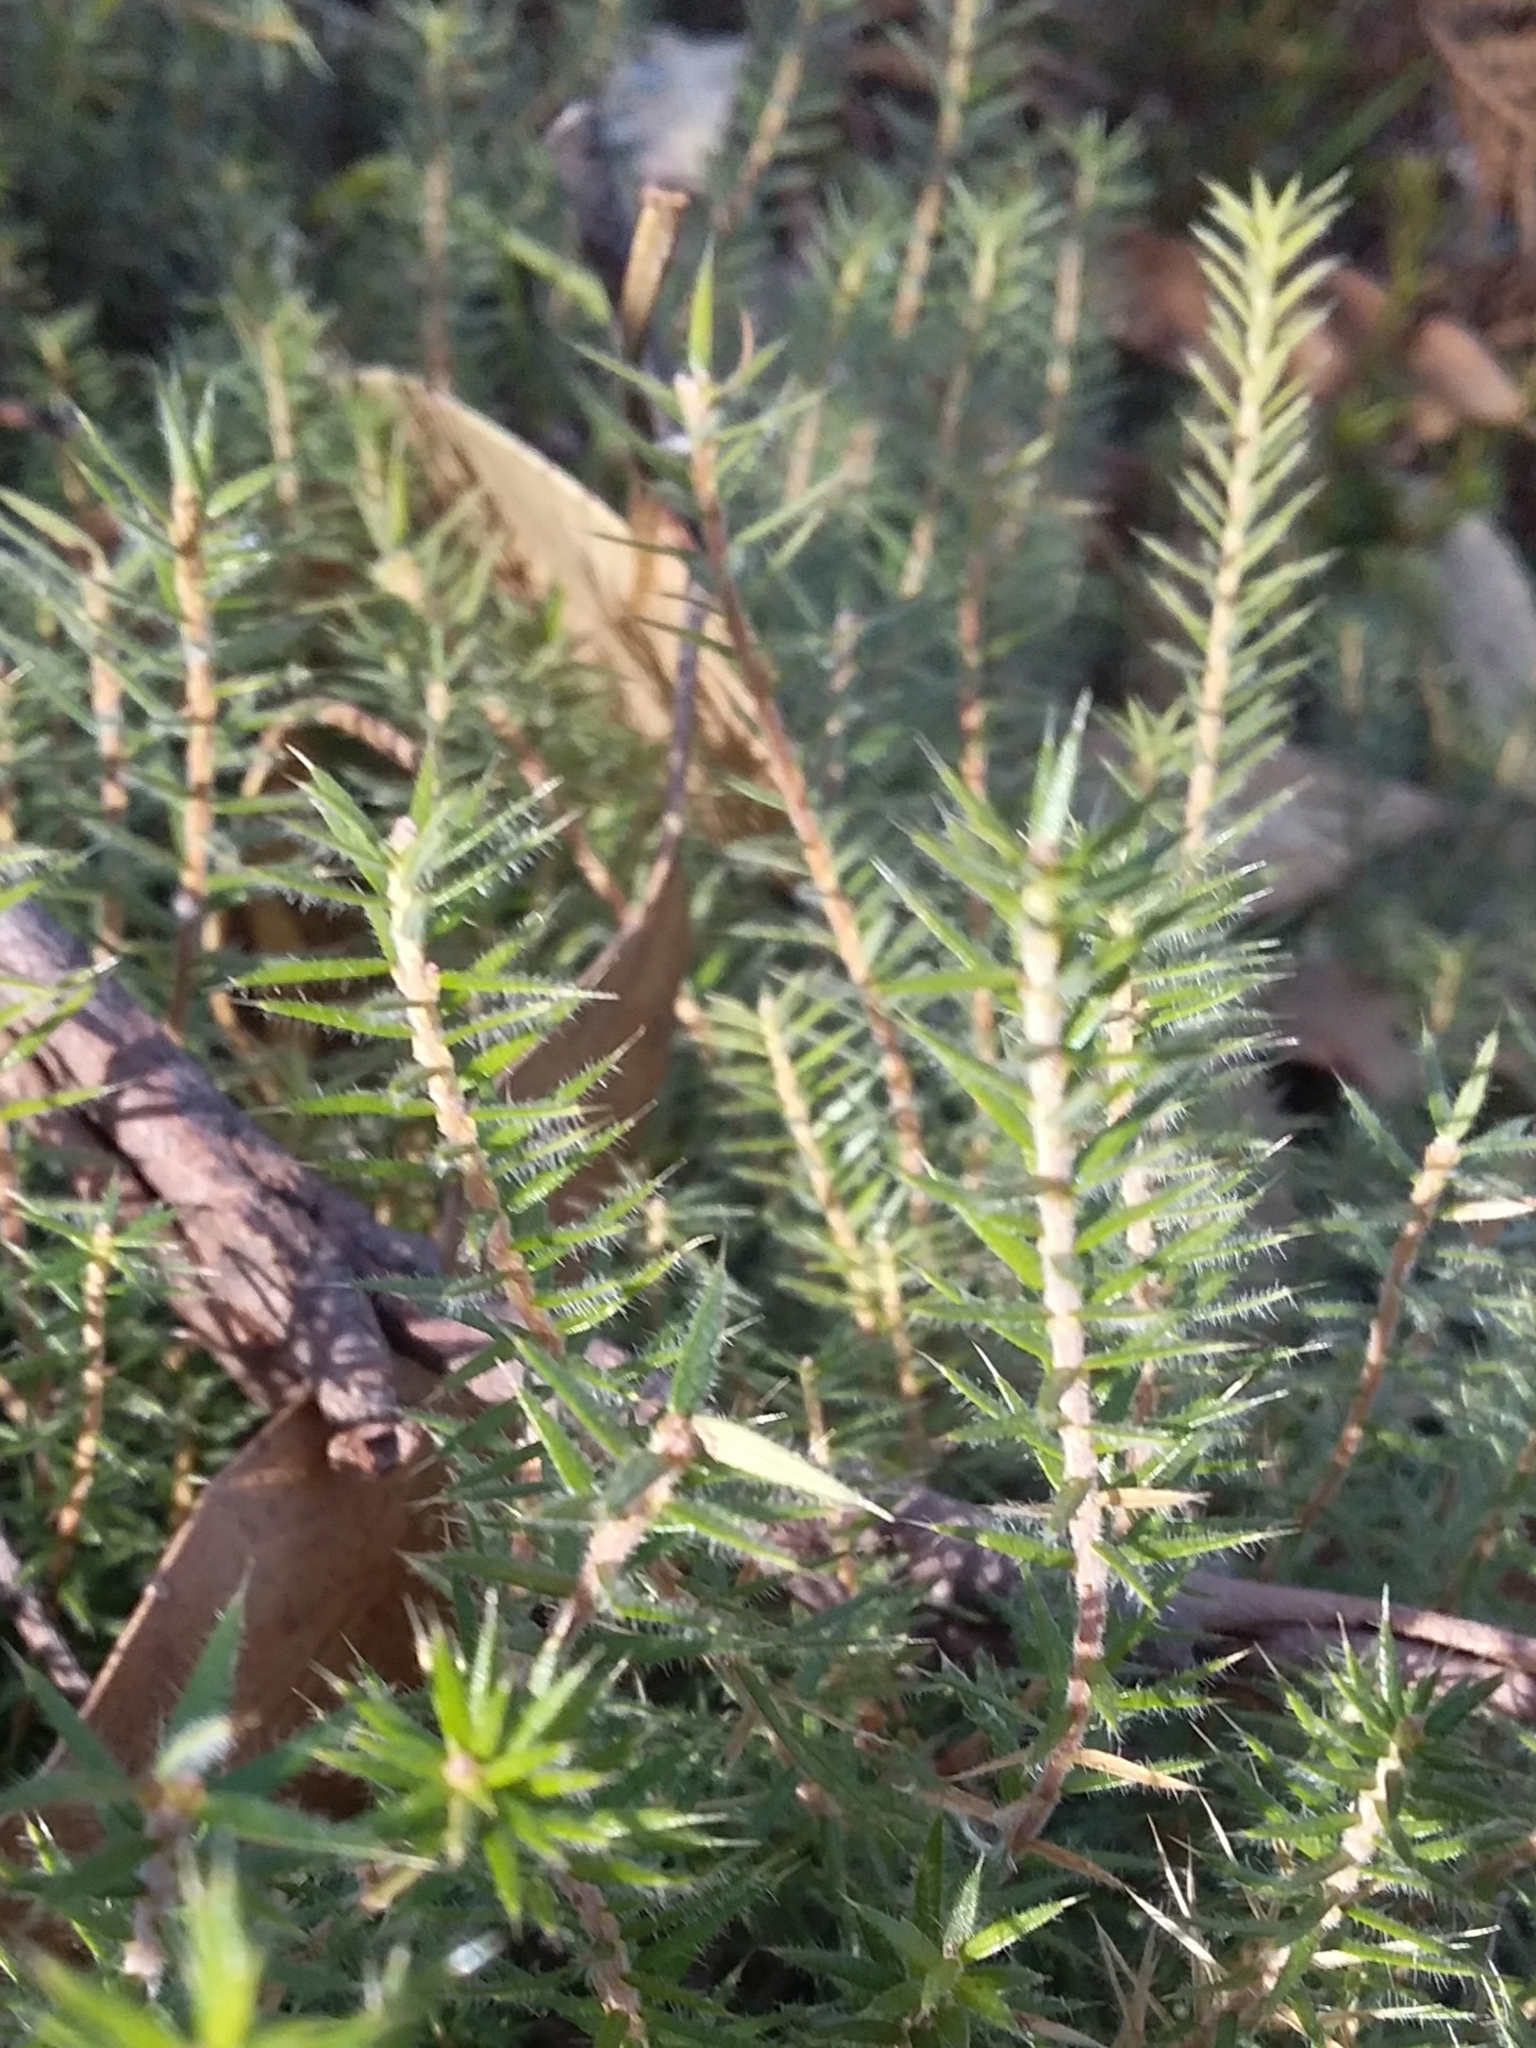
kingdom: Plantae
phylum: Tracheophyta
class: Magnoliopsida
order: Ericales
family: Ericaceae
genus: Acrotriche
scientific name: Acrotriche serrulata
